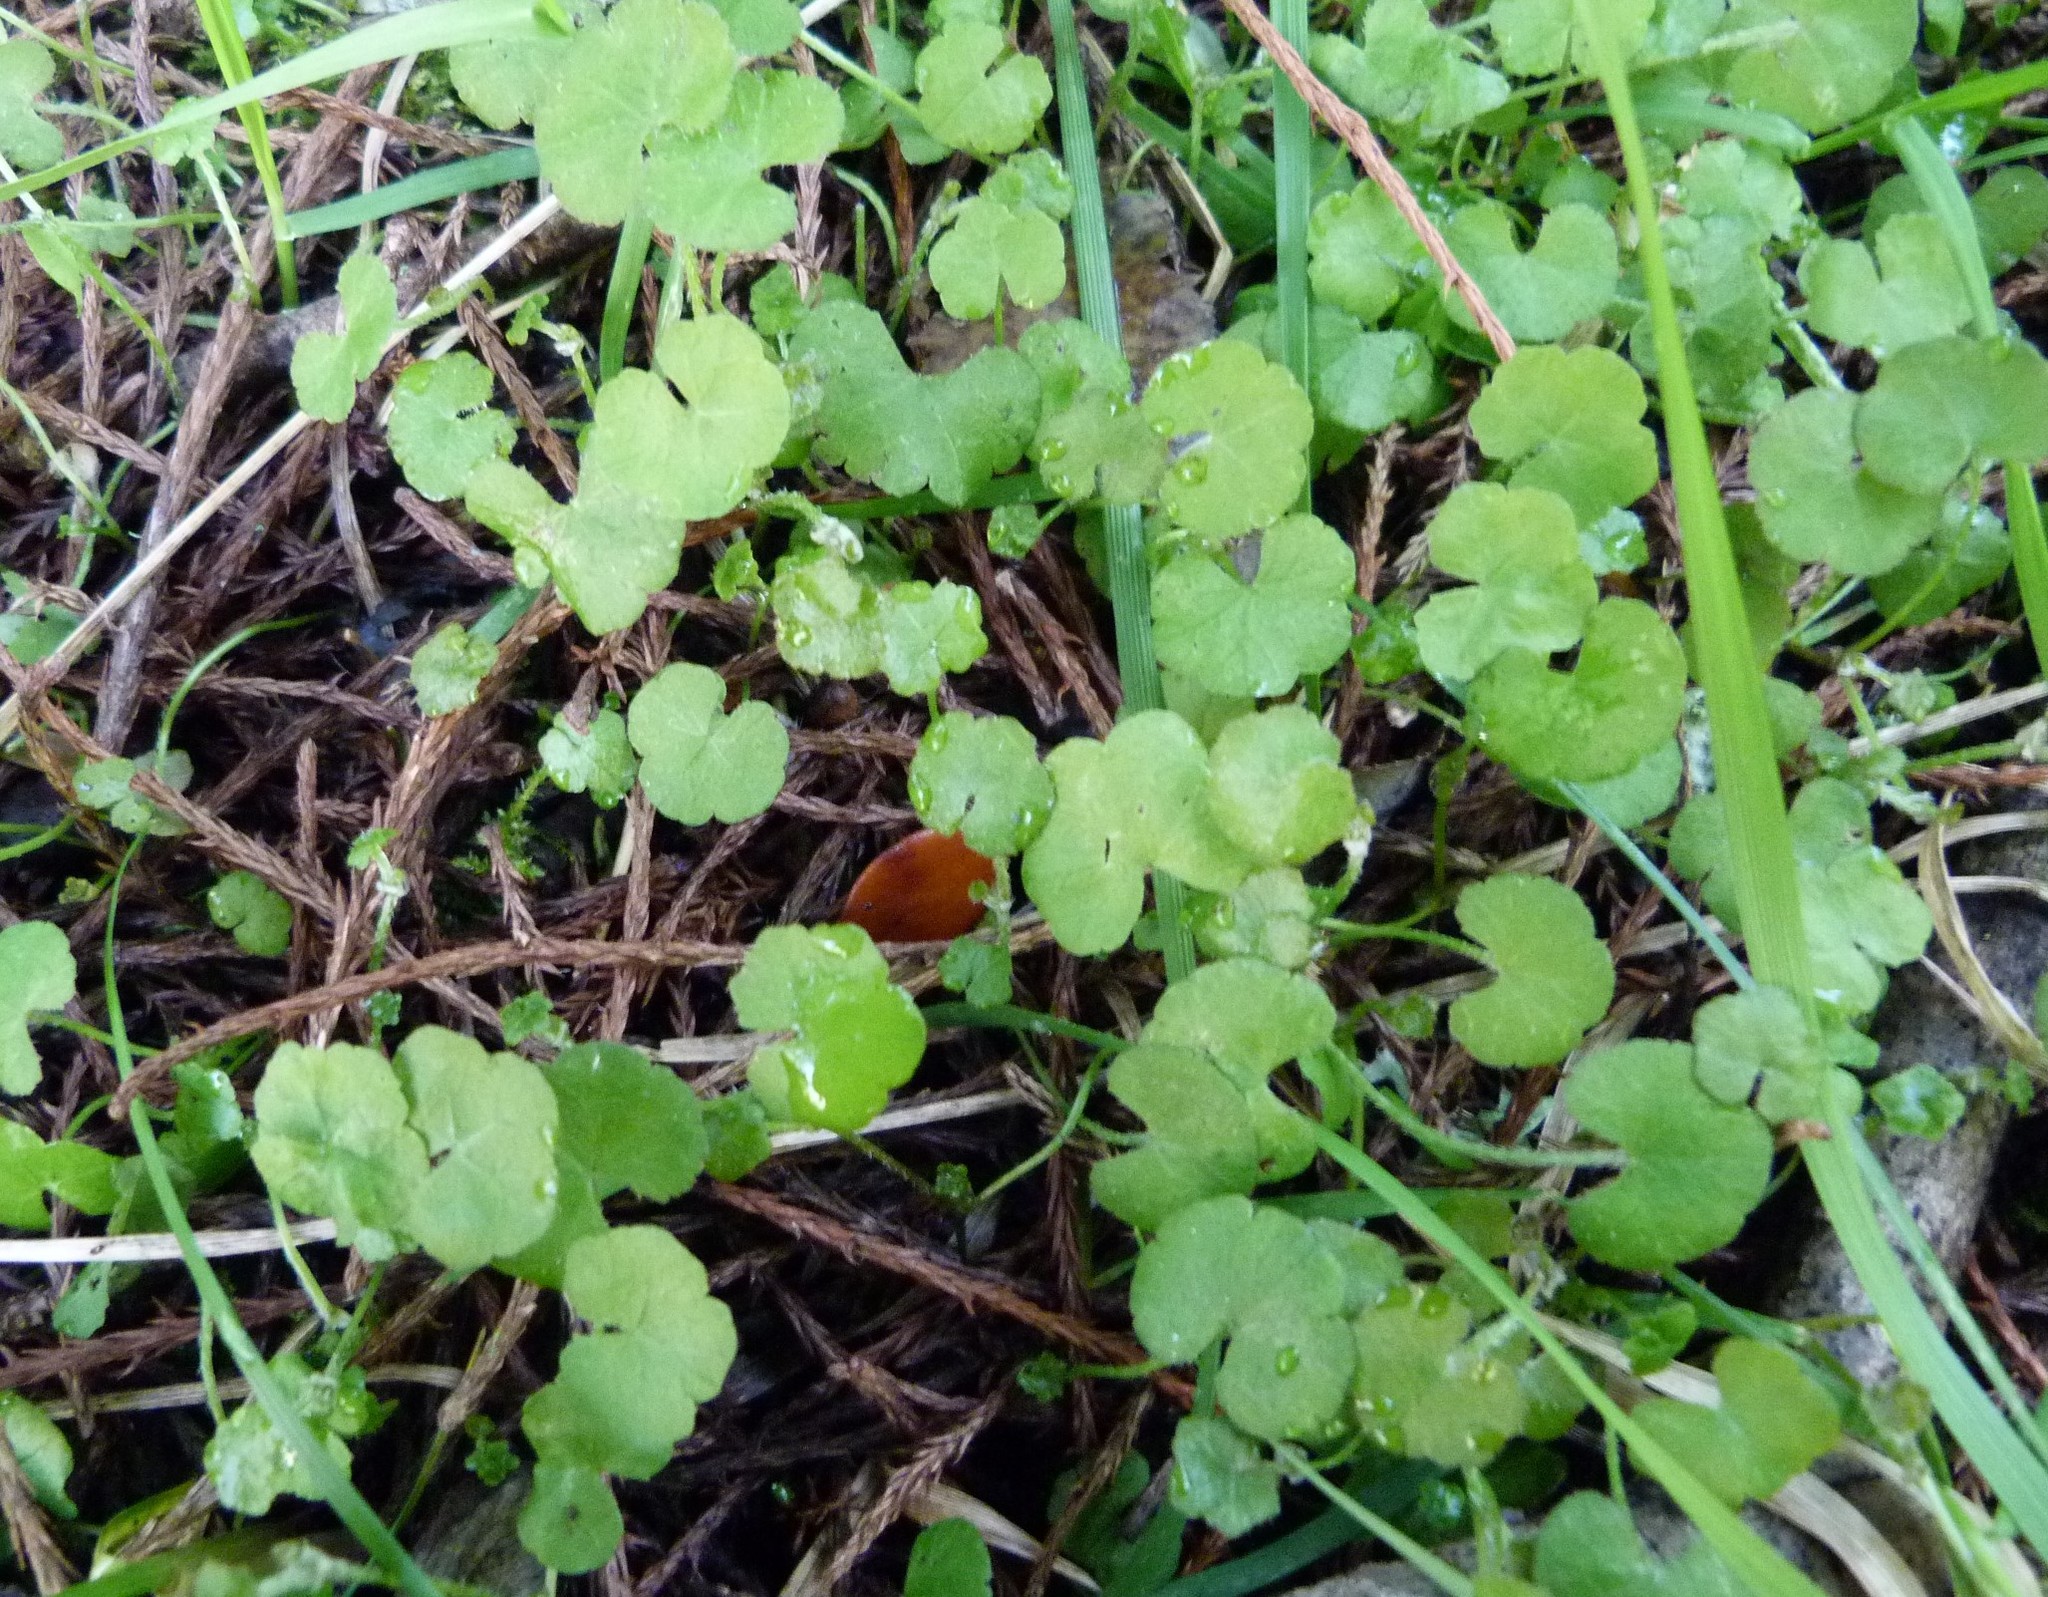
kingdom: Plantae
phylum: Tracheophyta
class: Magnoliopsida
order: Apiales
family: Araliaceae
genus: Hydrocotyle
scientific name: Hydrocotyle novae-zeelandiae
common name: New zealand pennywort
